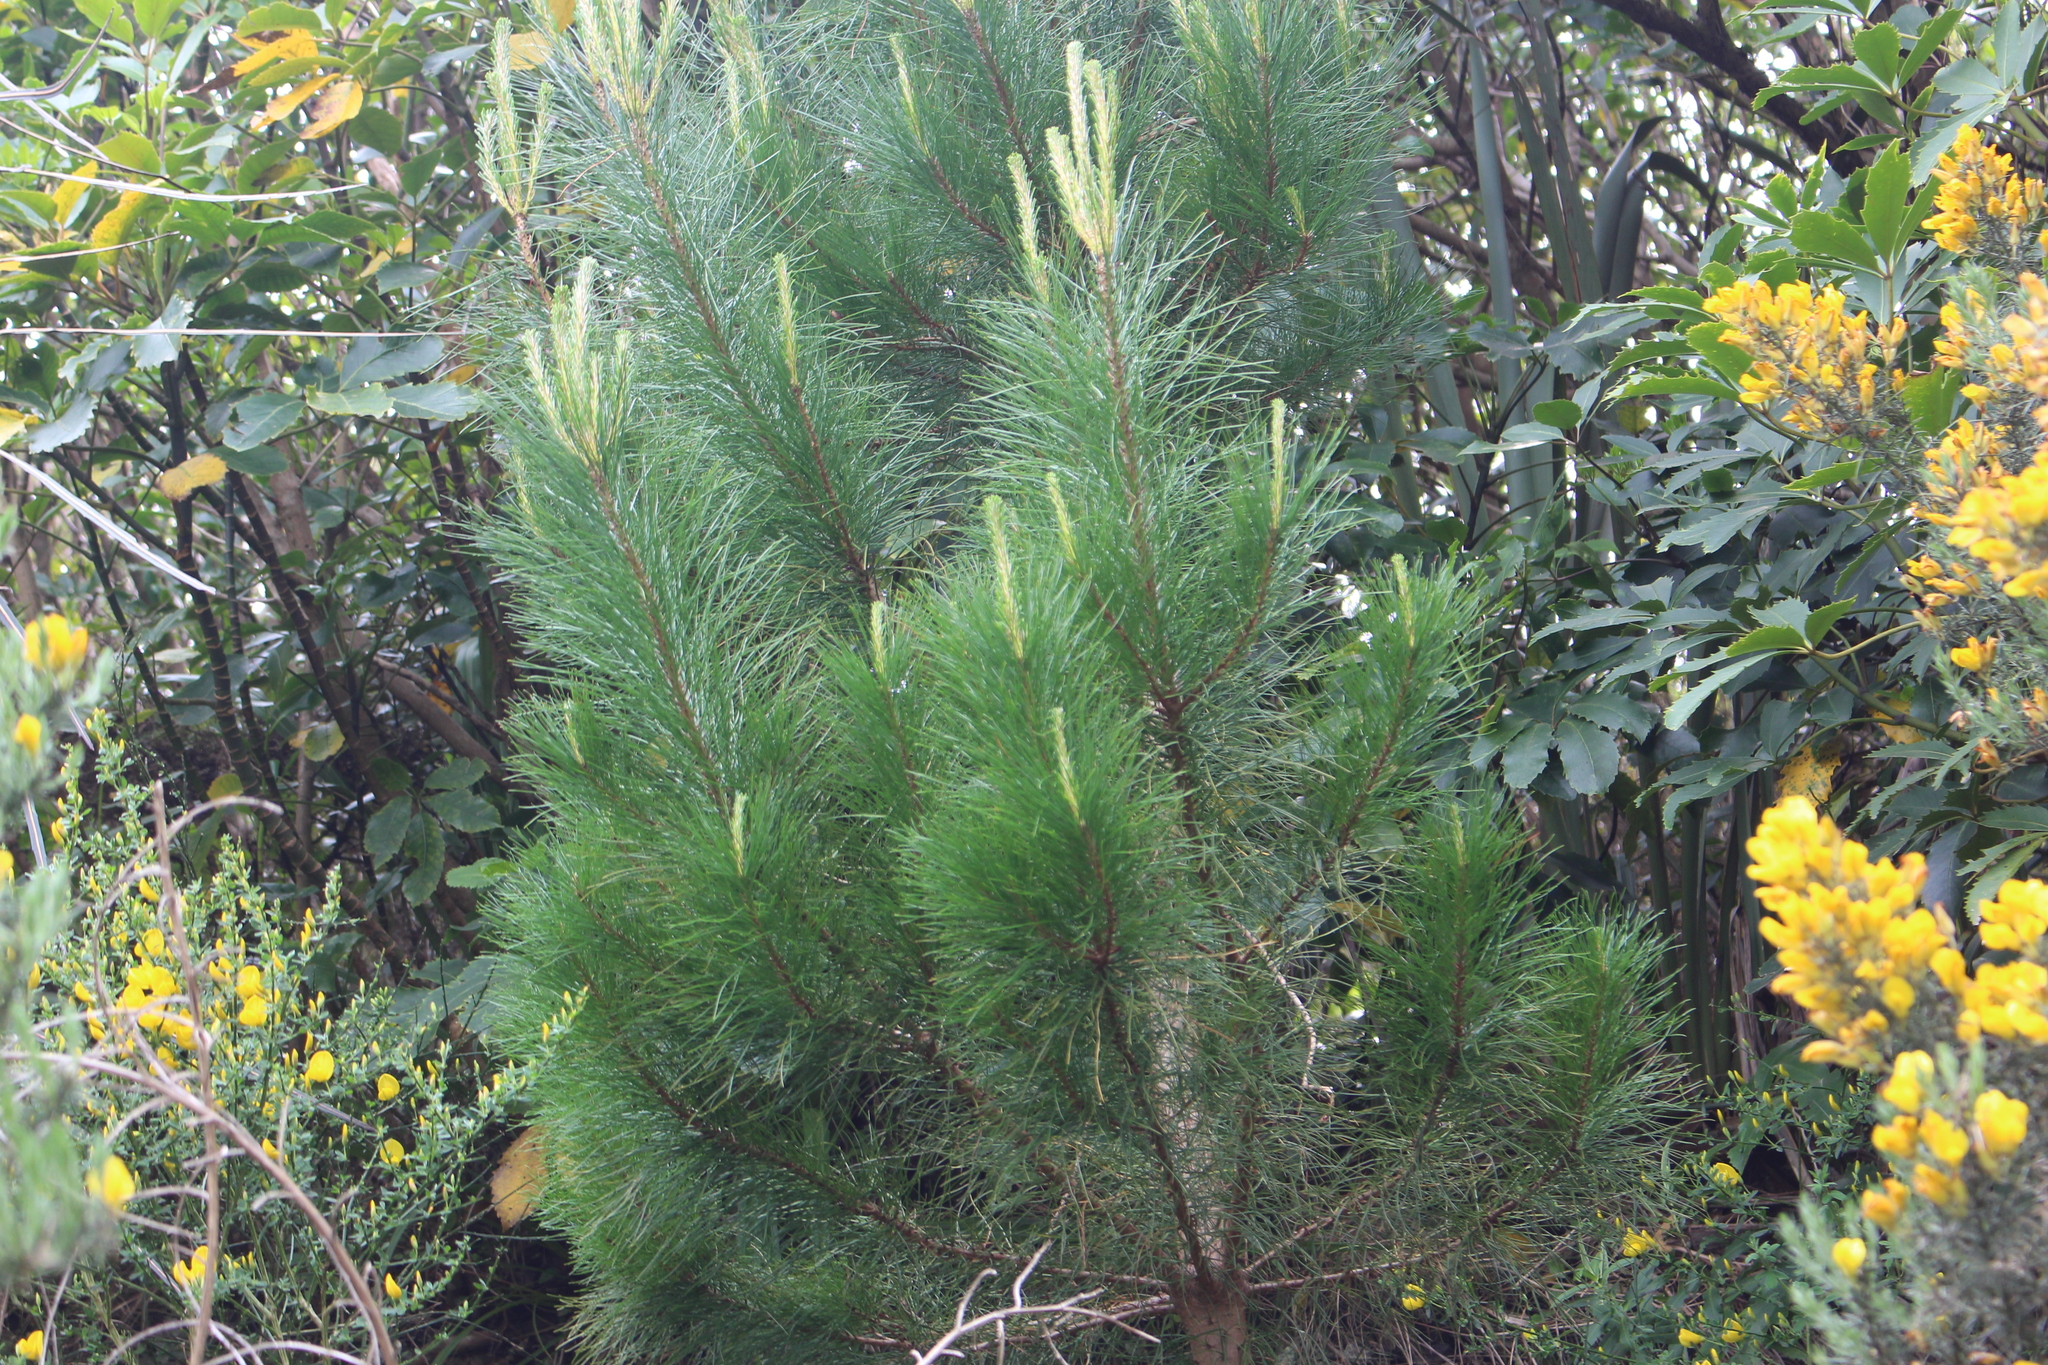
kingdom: Plantae
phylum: Tracheophyta
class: Pinopsida
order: Pinales
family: Pinaceae
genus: Pinus
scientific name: Pinus radiata
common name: Monterey pine
